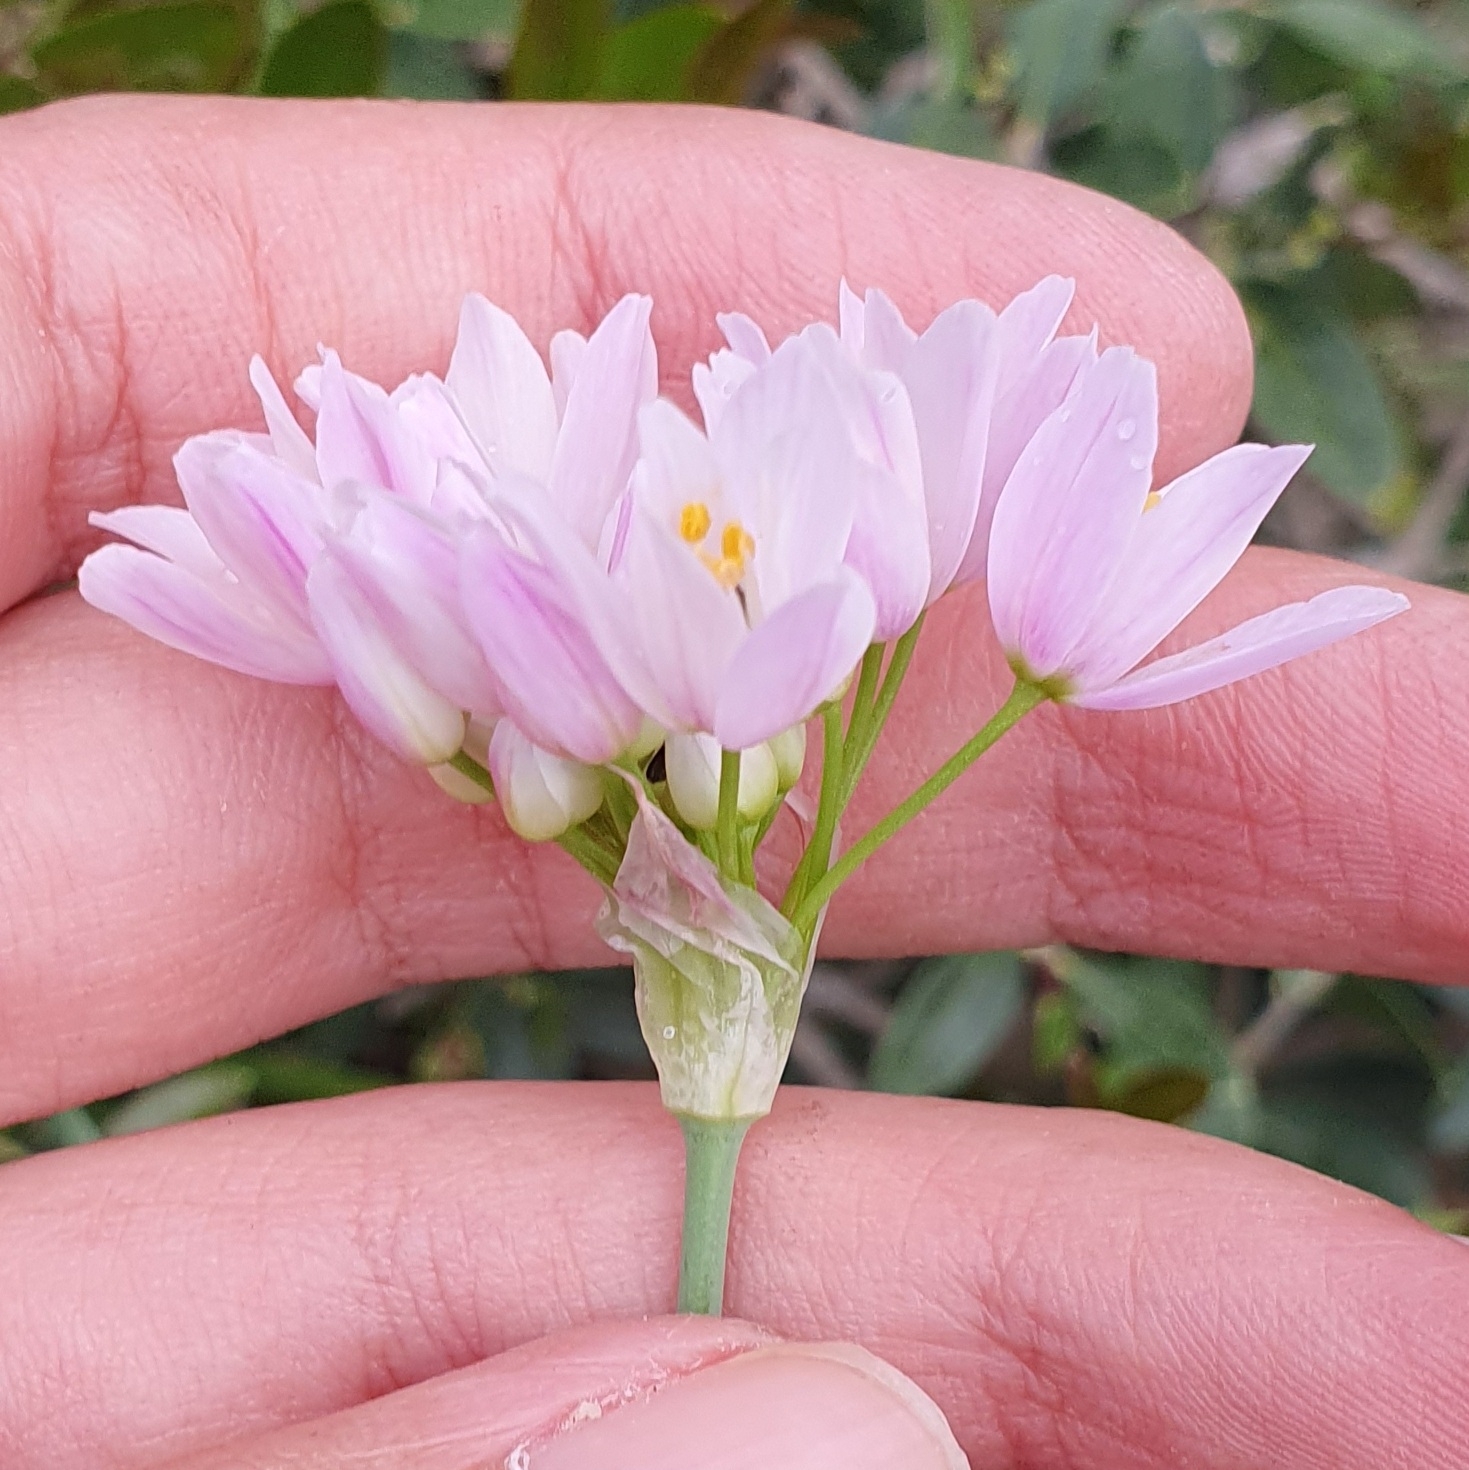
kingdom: Plantae
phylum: Tracheophyta
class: Liliopsida
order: Asparagales
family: Amaryllidaceae
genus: Allium
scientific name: Allium roseum
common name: Rosy garlic
